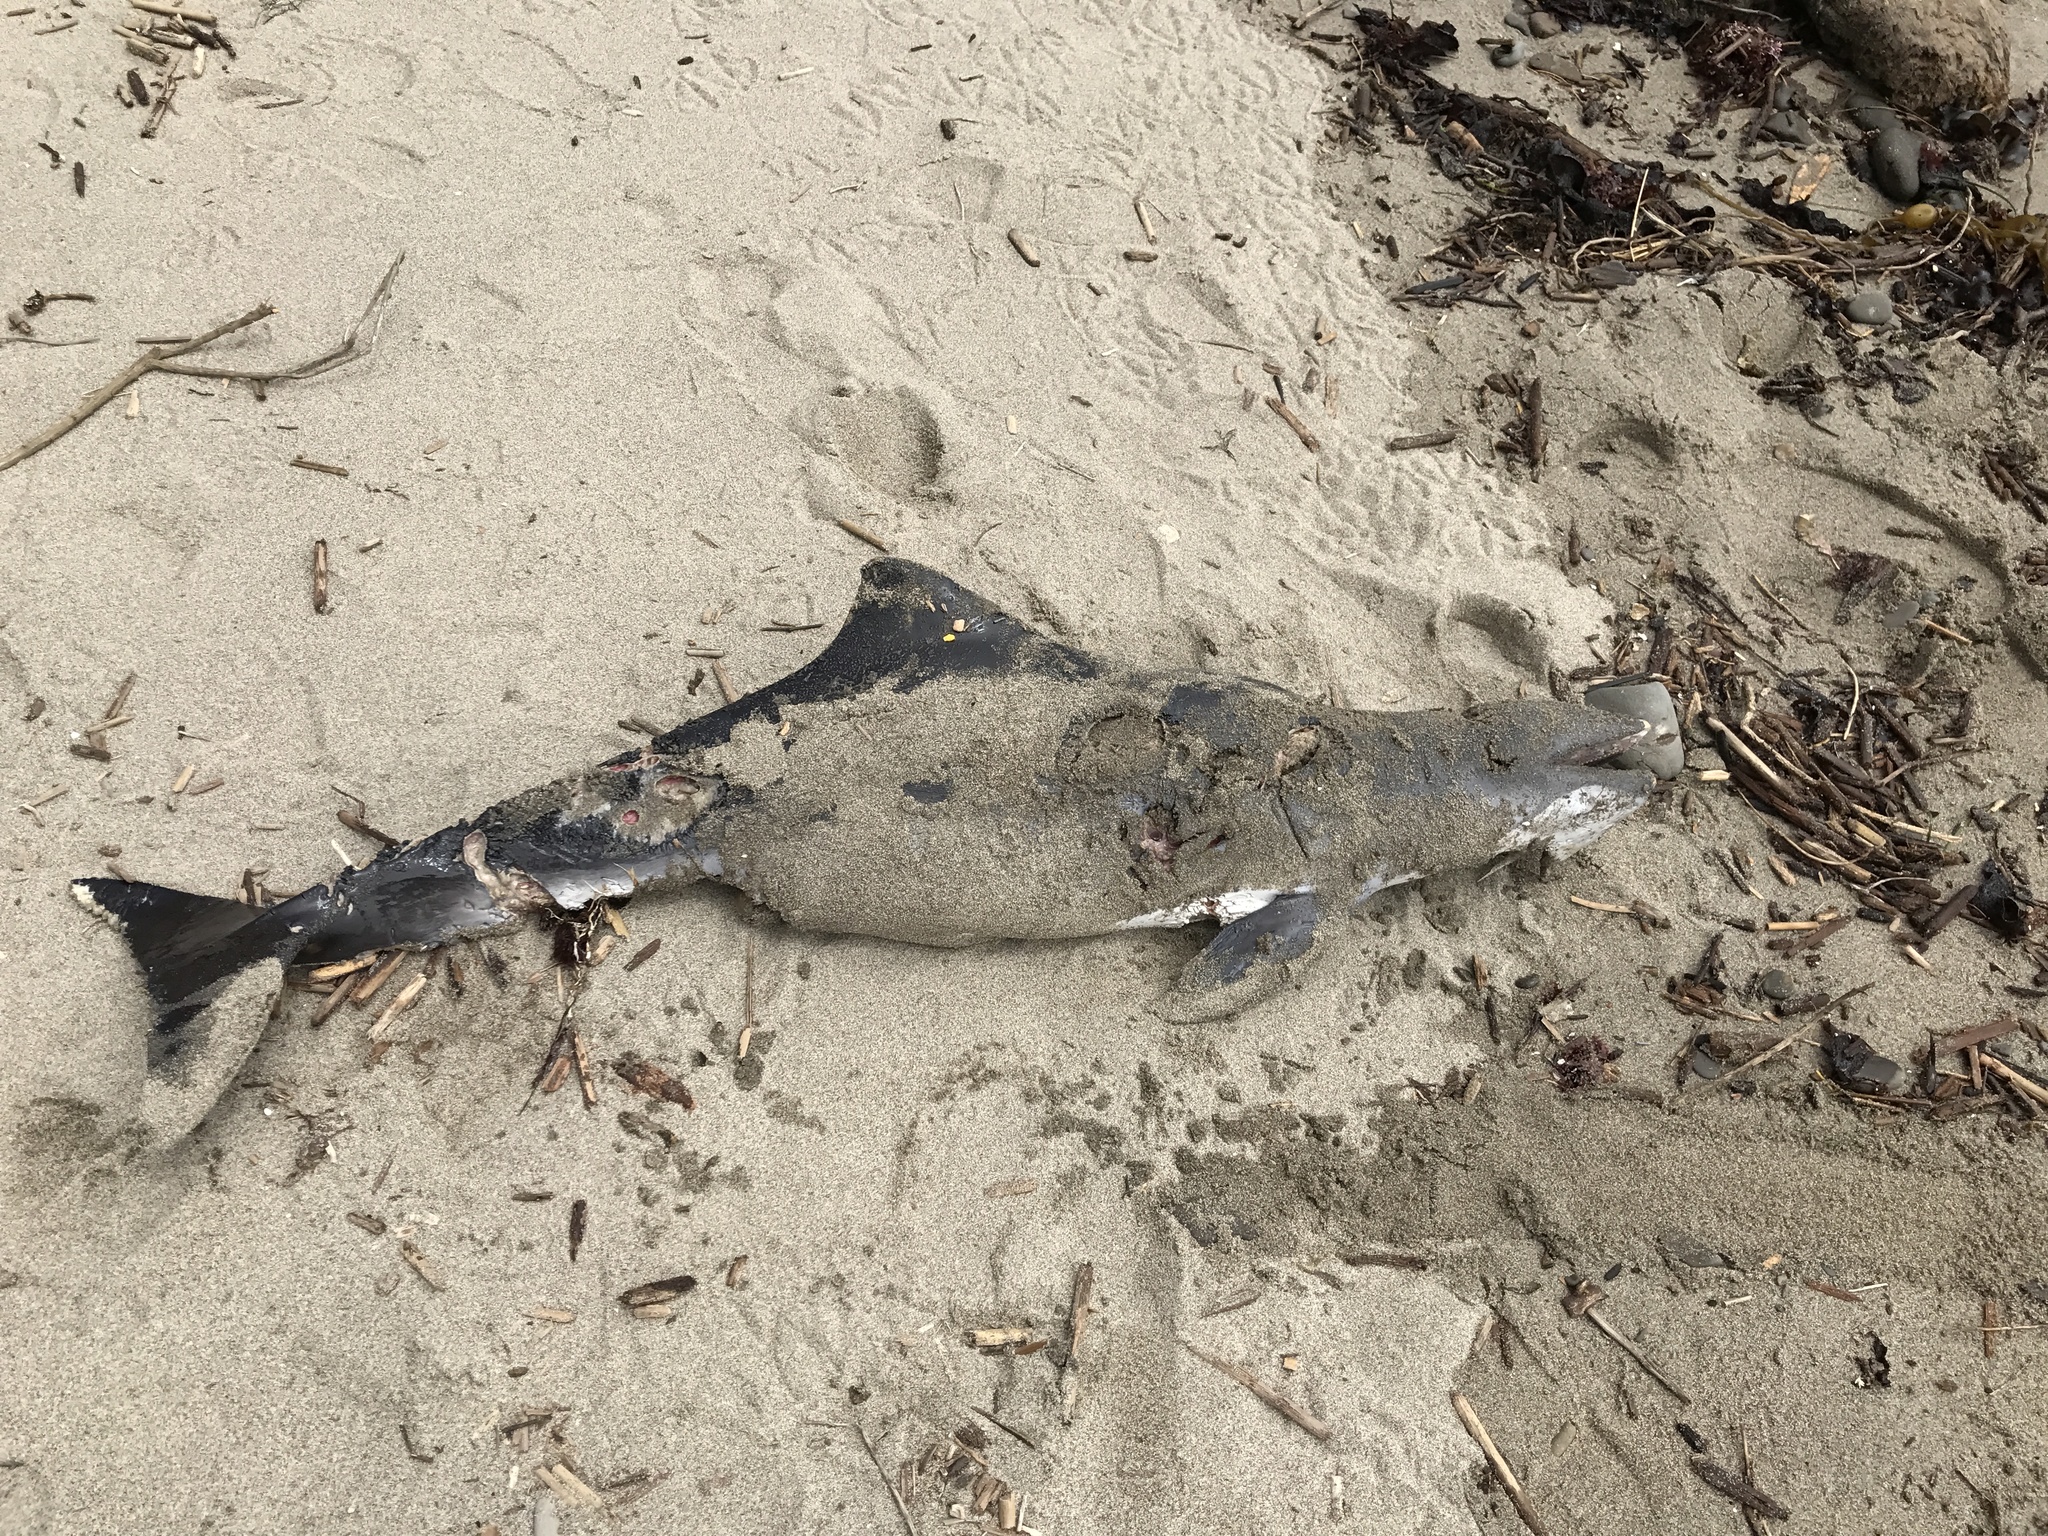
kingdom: Animalia
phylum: Chordata
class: Mammalia
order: Cetacea
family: Phocoenidae
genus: Phocoena
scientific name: Phocoena phocoena
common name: Harbor porpoise
